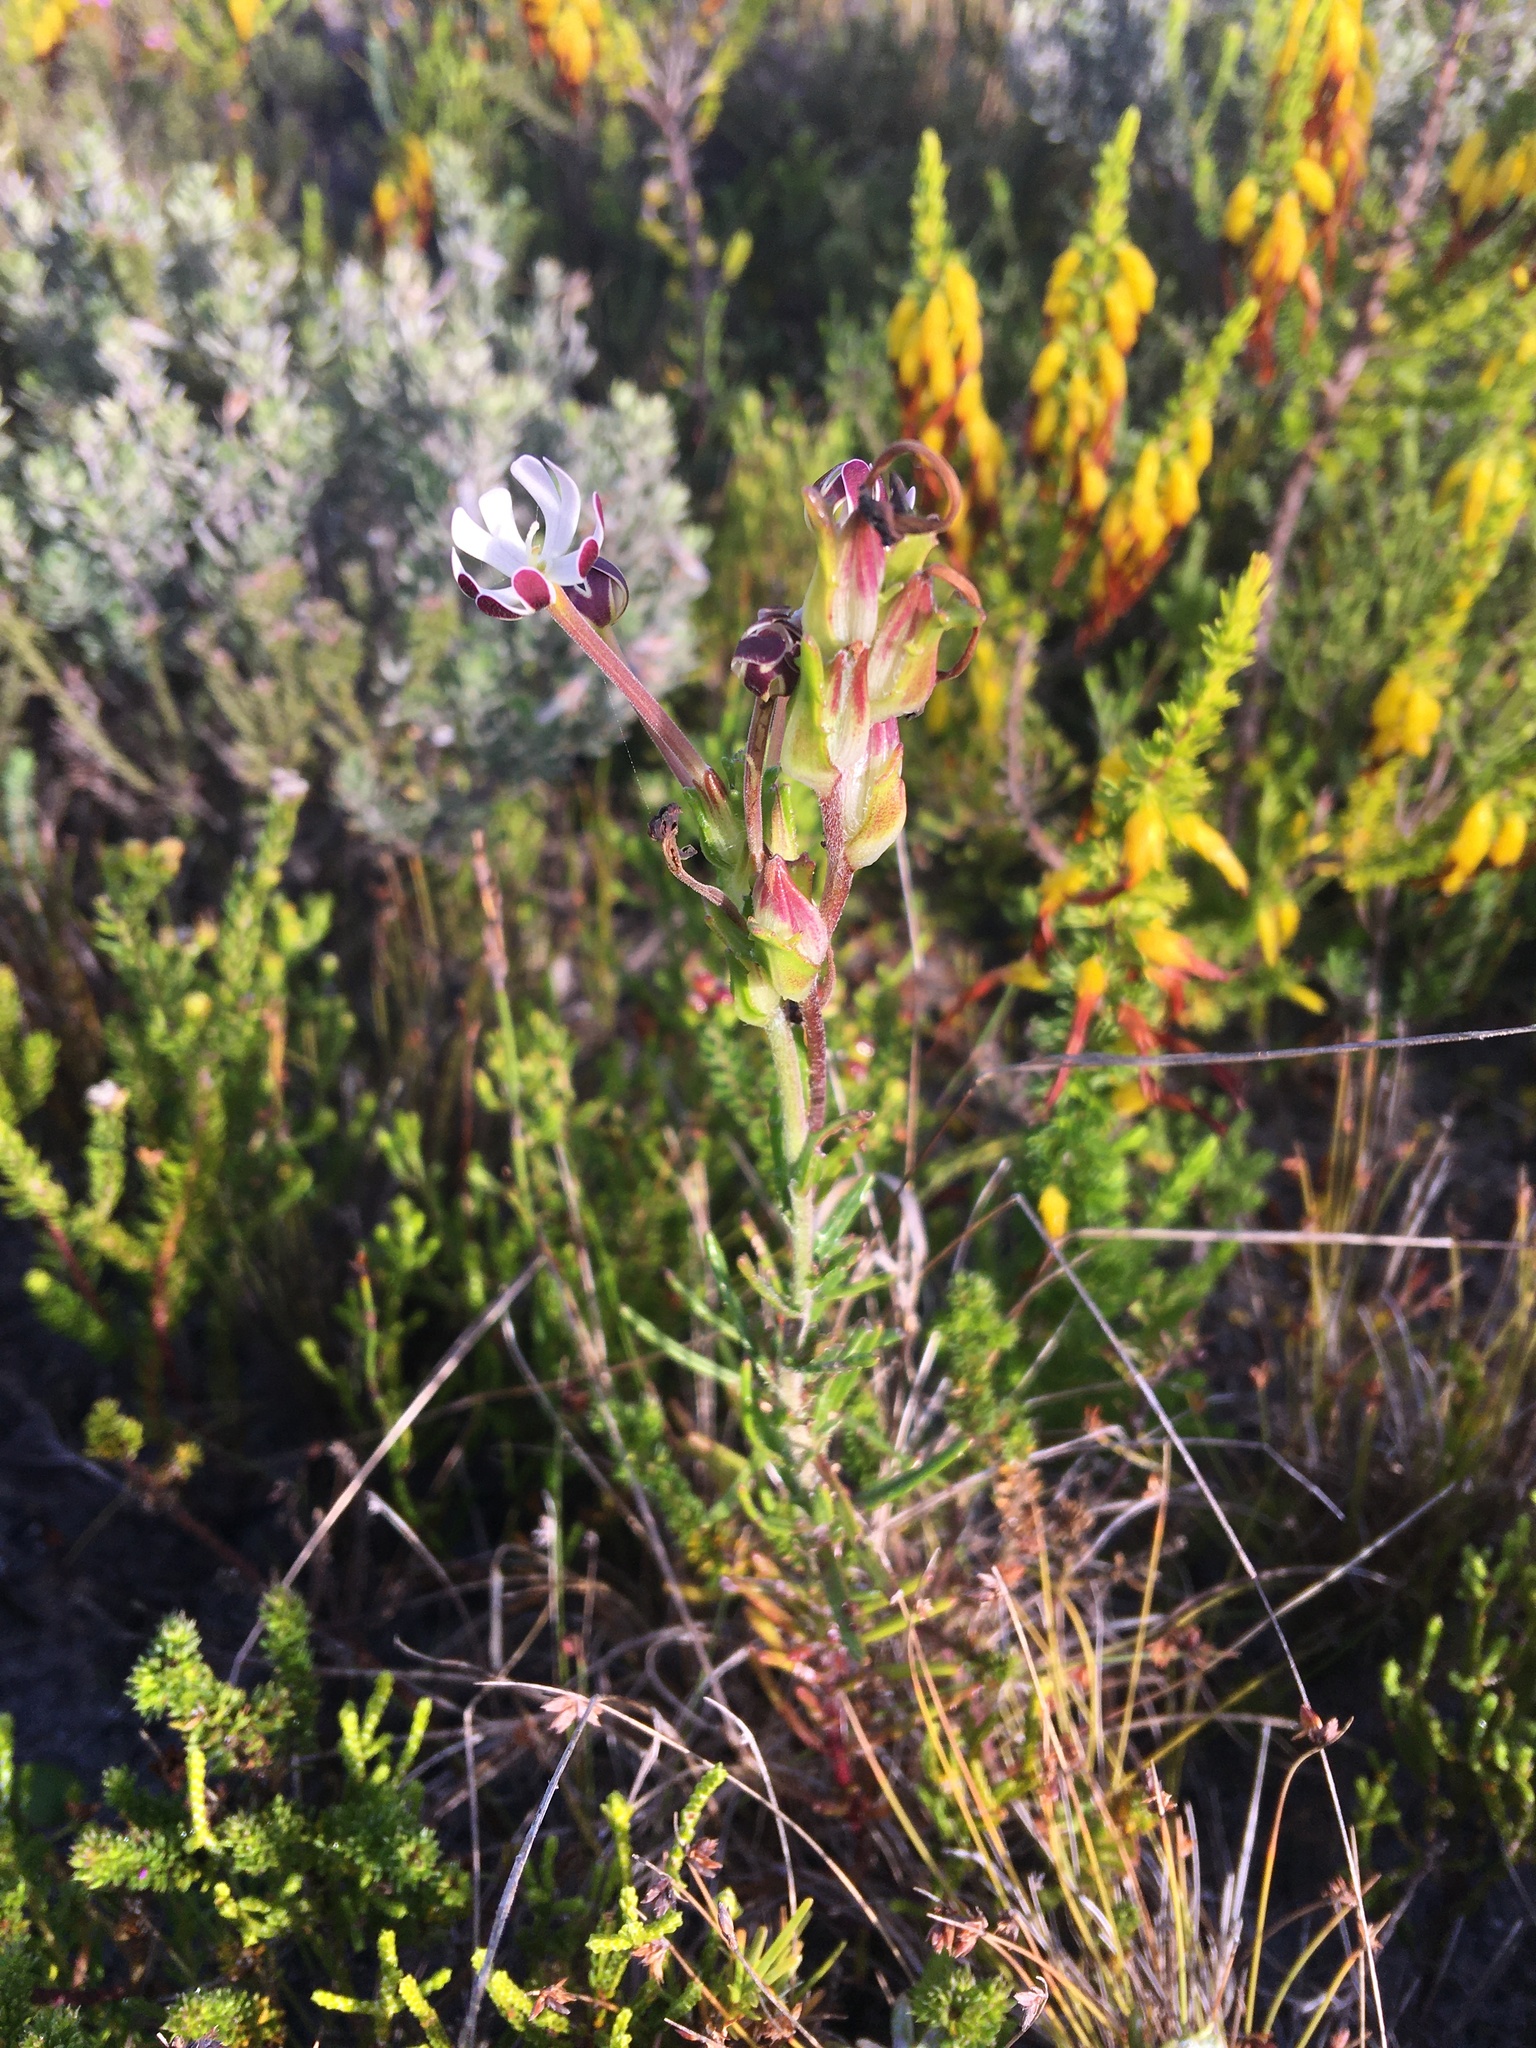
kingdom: Plantae
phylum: Tracheophyta
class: Magnoliopsida
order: Lamiales
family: Scrophulariaceae
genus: Zaluzianskya
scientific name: Zaluzianskya capensis
